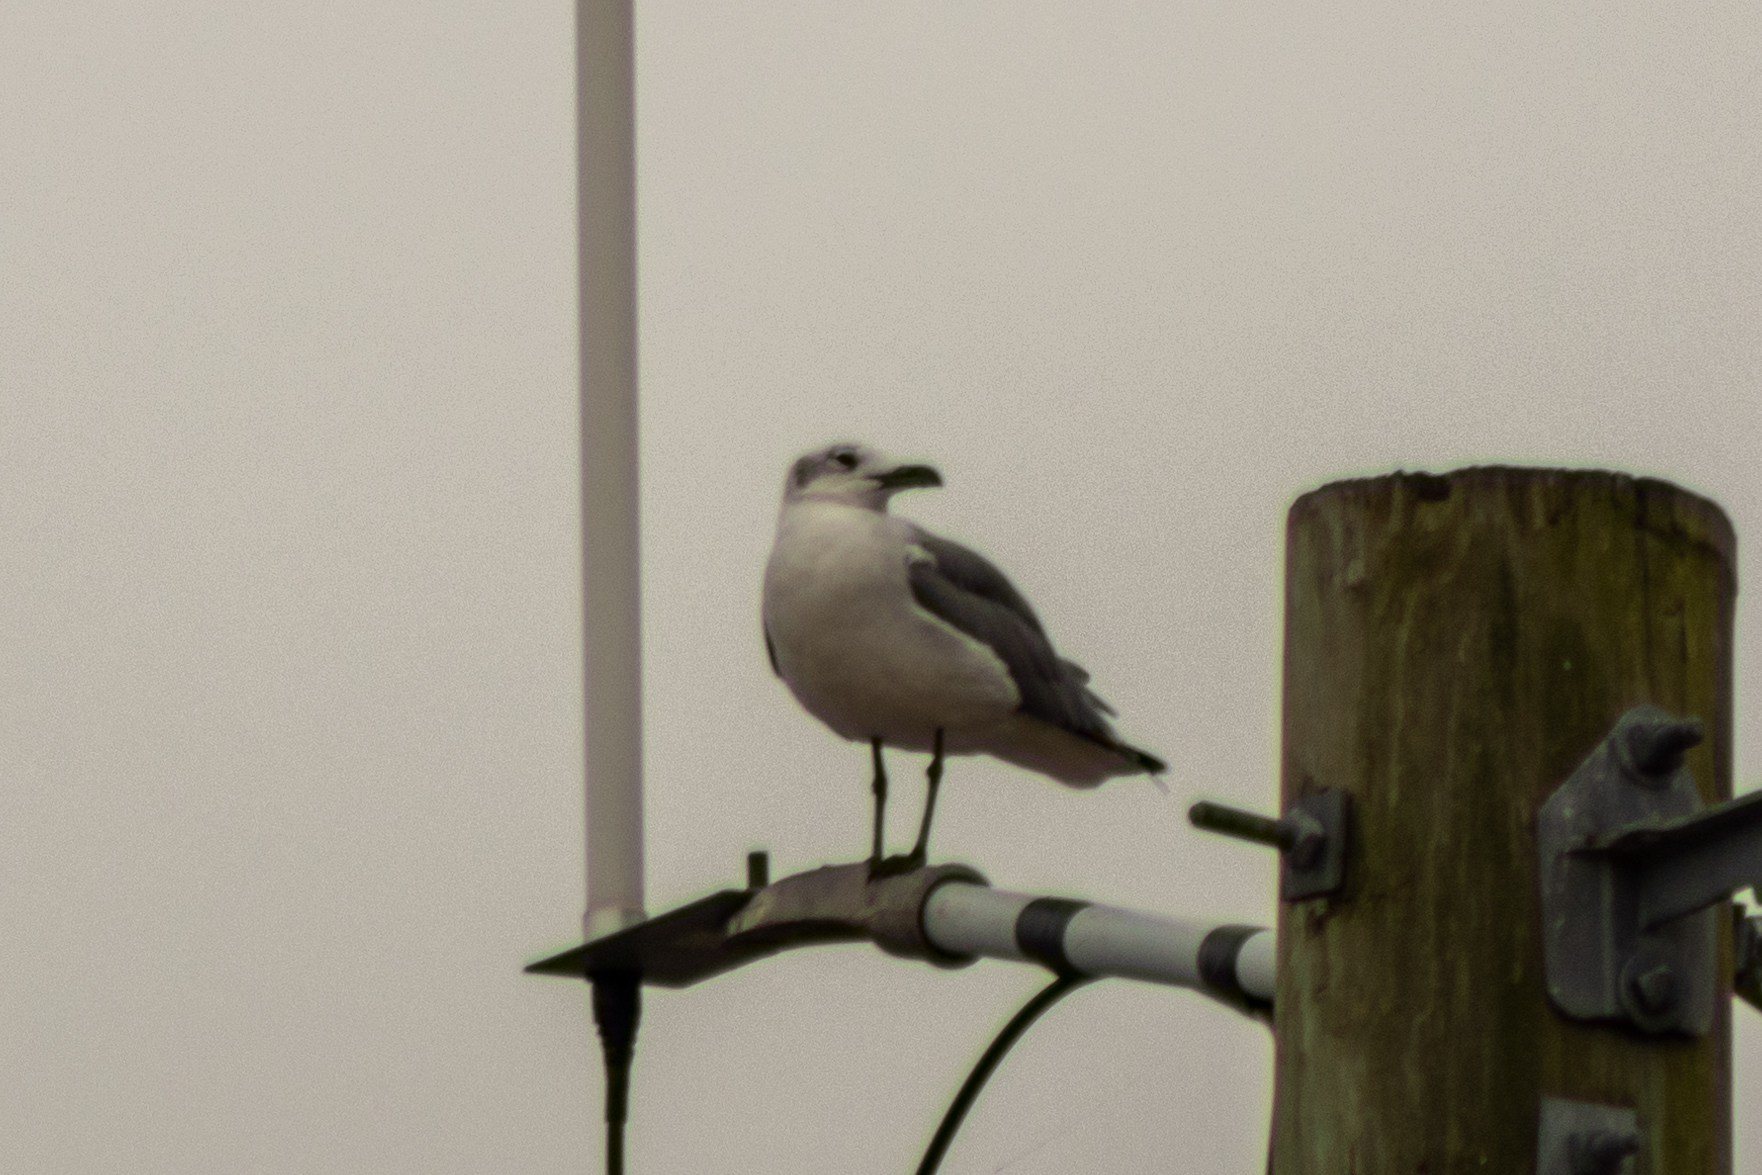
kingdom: Animalia
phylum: Chordata
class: Aves
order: Charadriiformes
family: Laridae
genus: Leucophaeus
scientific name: Leucophaeus atricilla
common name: Laughing gull
